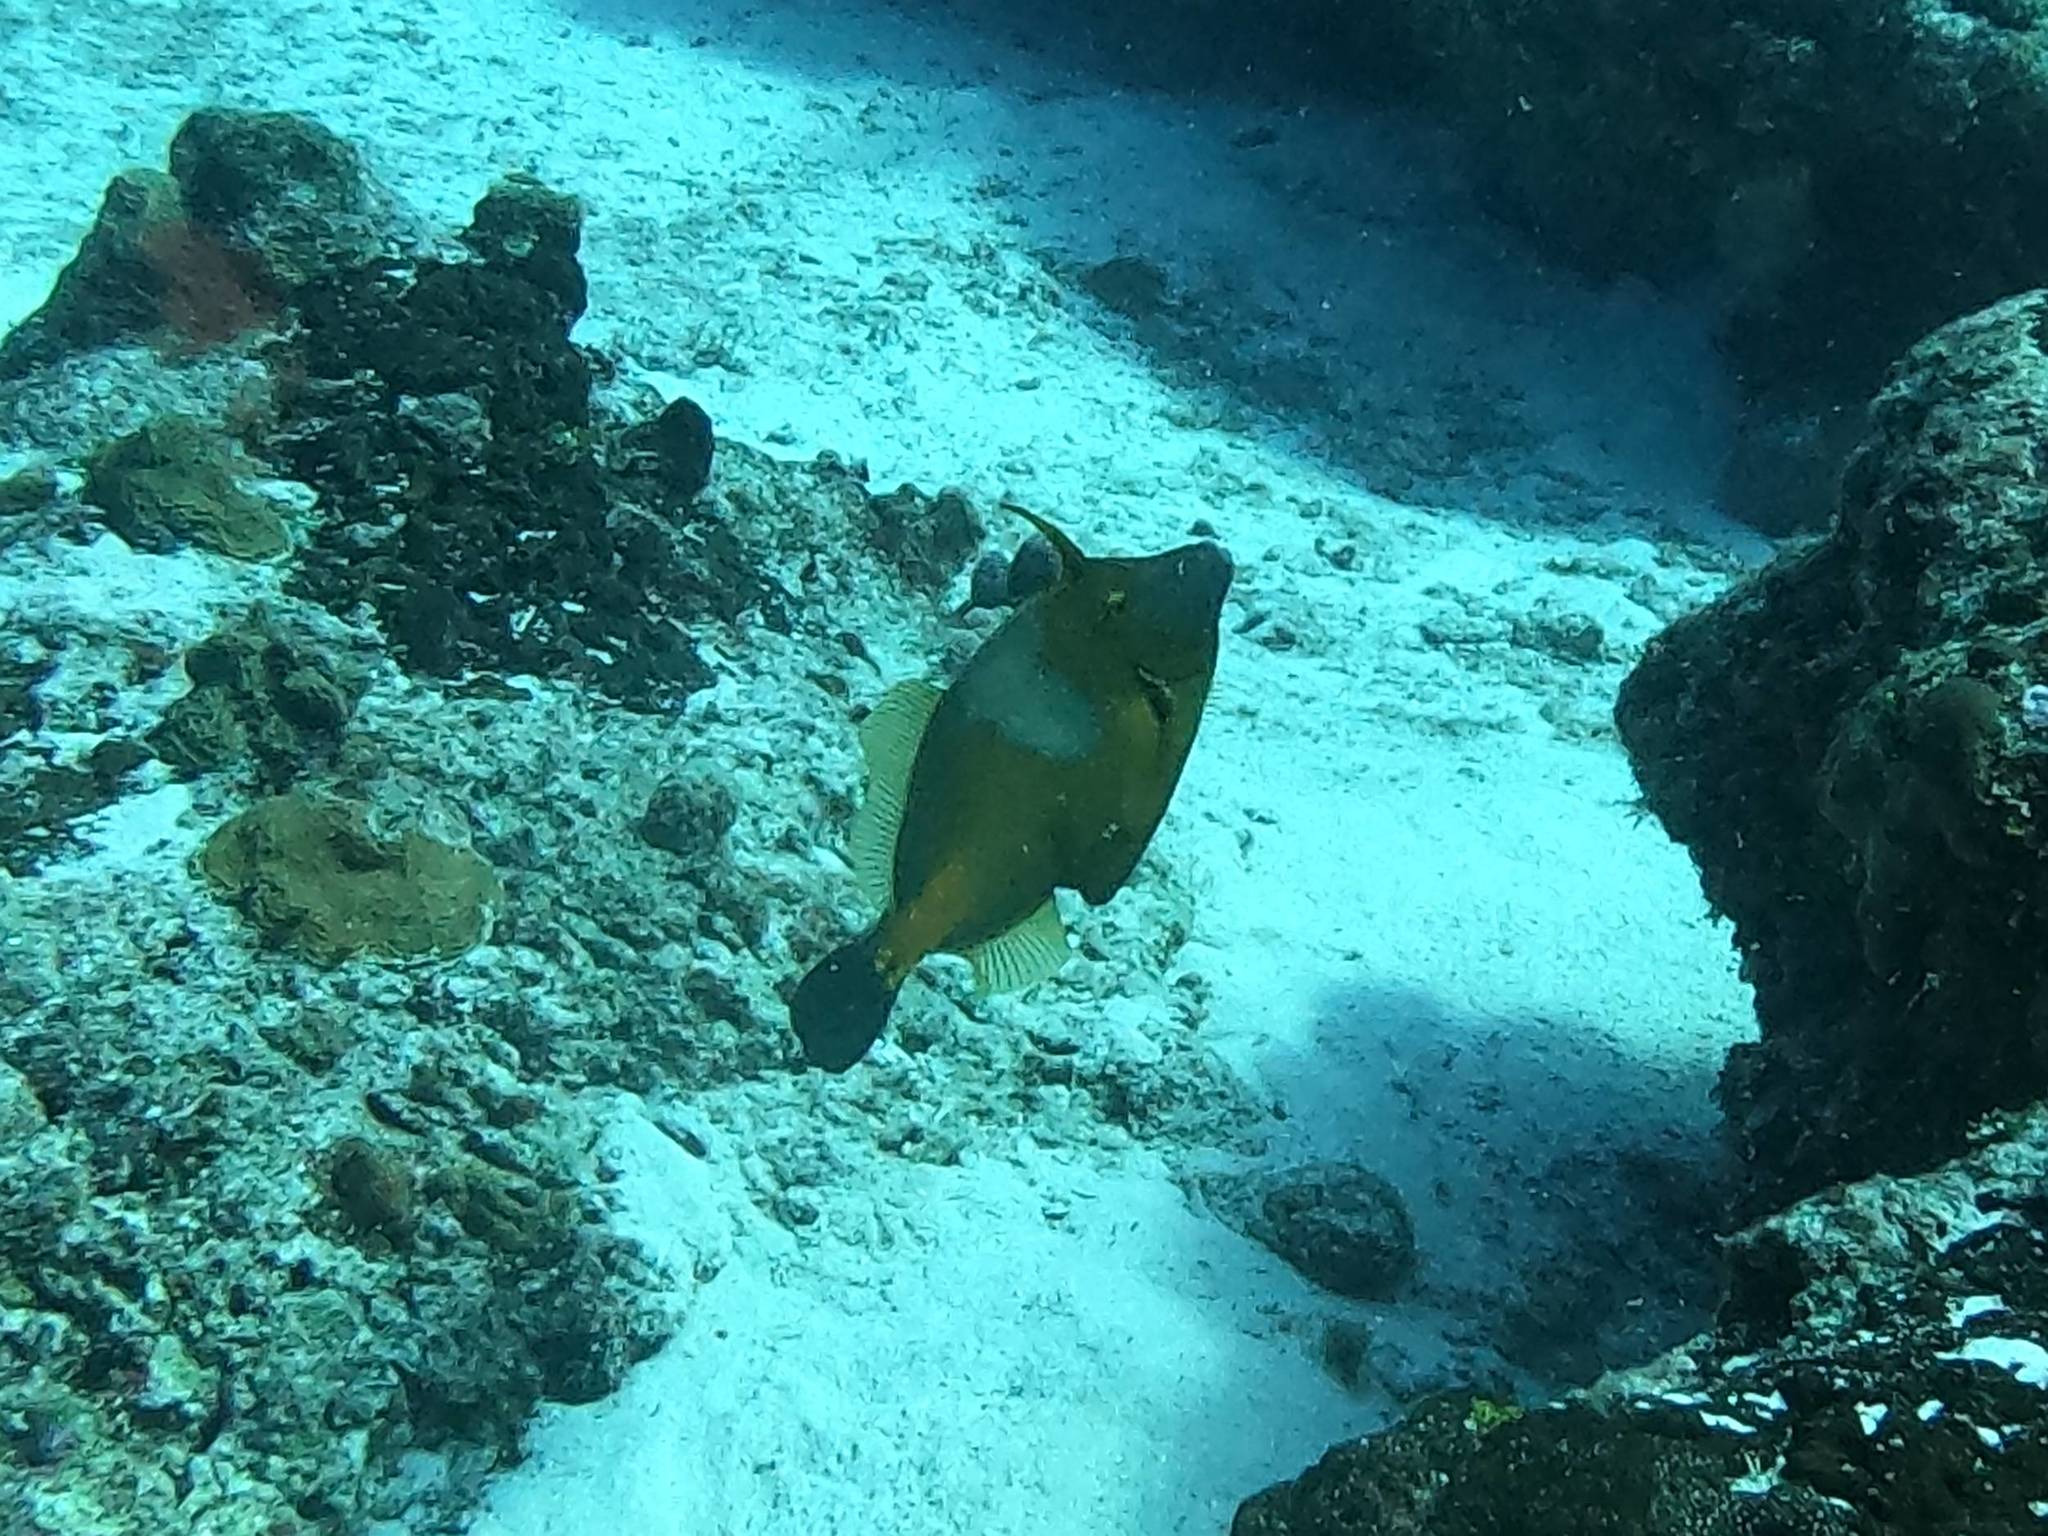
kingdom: Animalia
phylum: Chordata
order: Tetraodontiformes
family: Monacanthidae
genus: Cantherhines
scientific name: Cantherhines macrocerus
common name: Whitespotted filefish
